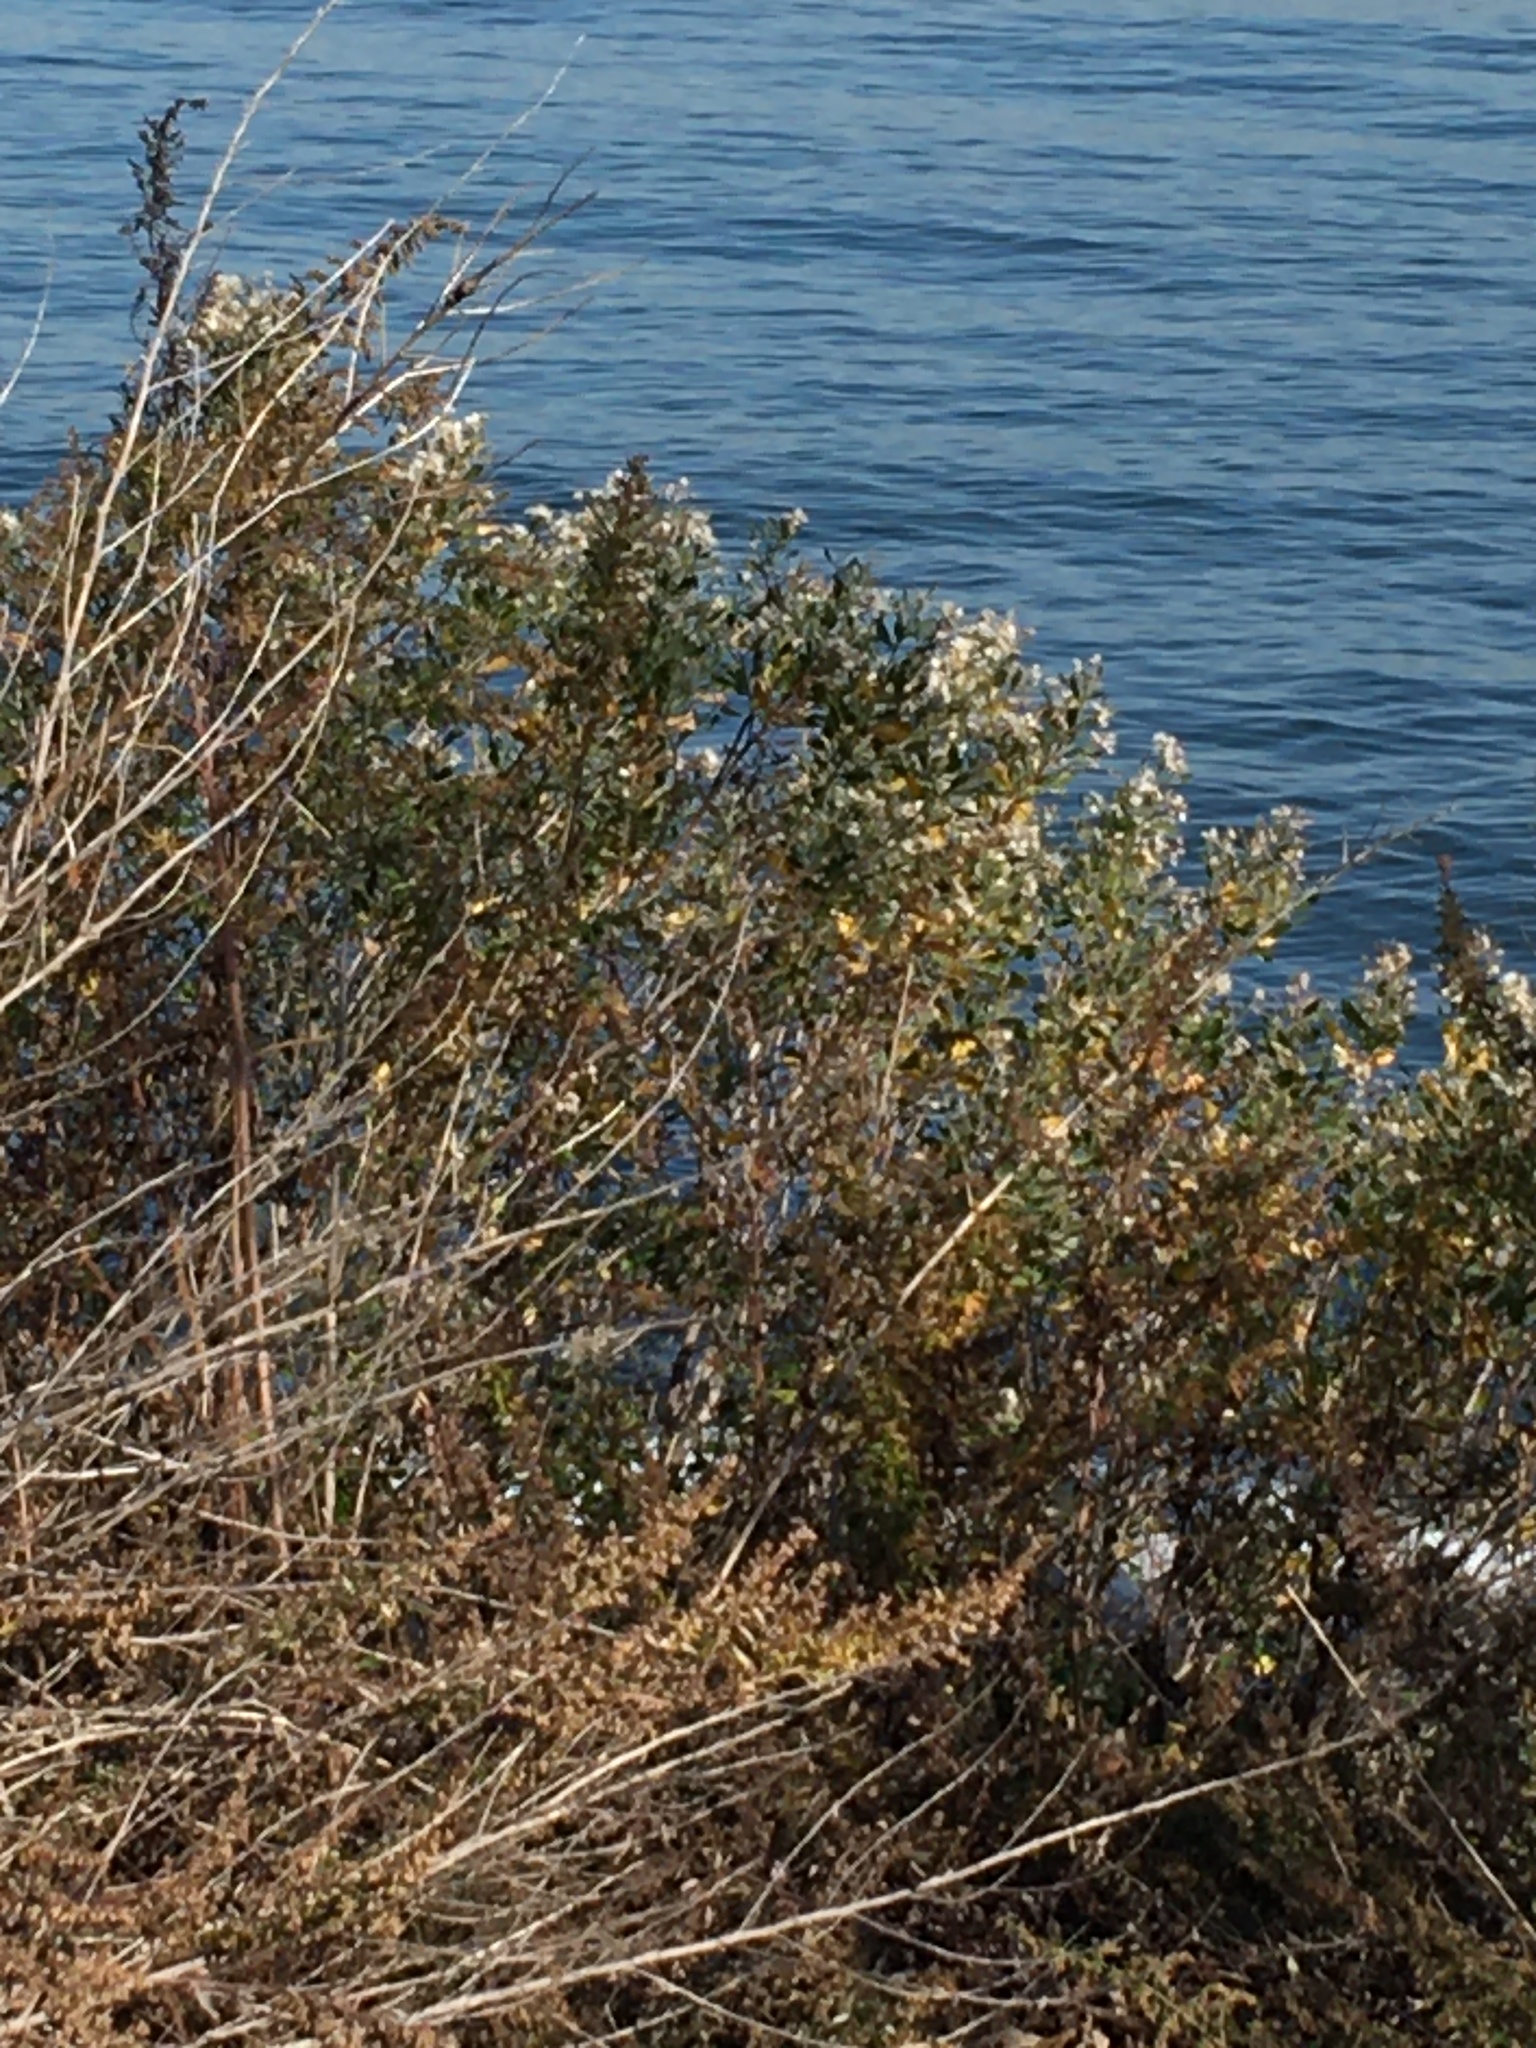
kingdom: Plantae
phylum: Tracheophyta
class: Magnoliopsida
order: Asterales
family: Asteraceae
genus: Baccharis
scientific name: Baccharis halimifolia
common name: Eastern baccharis
